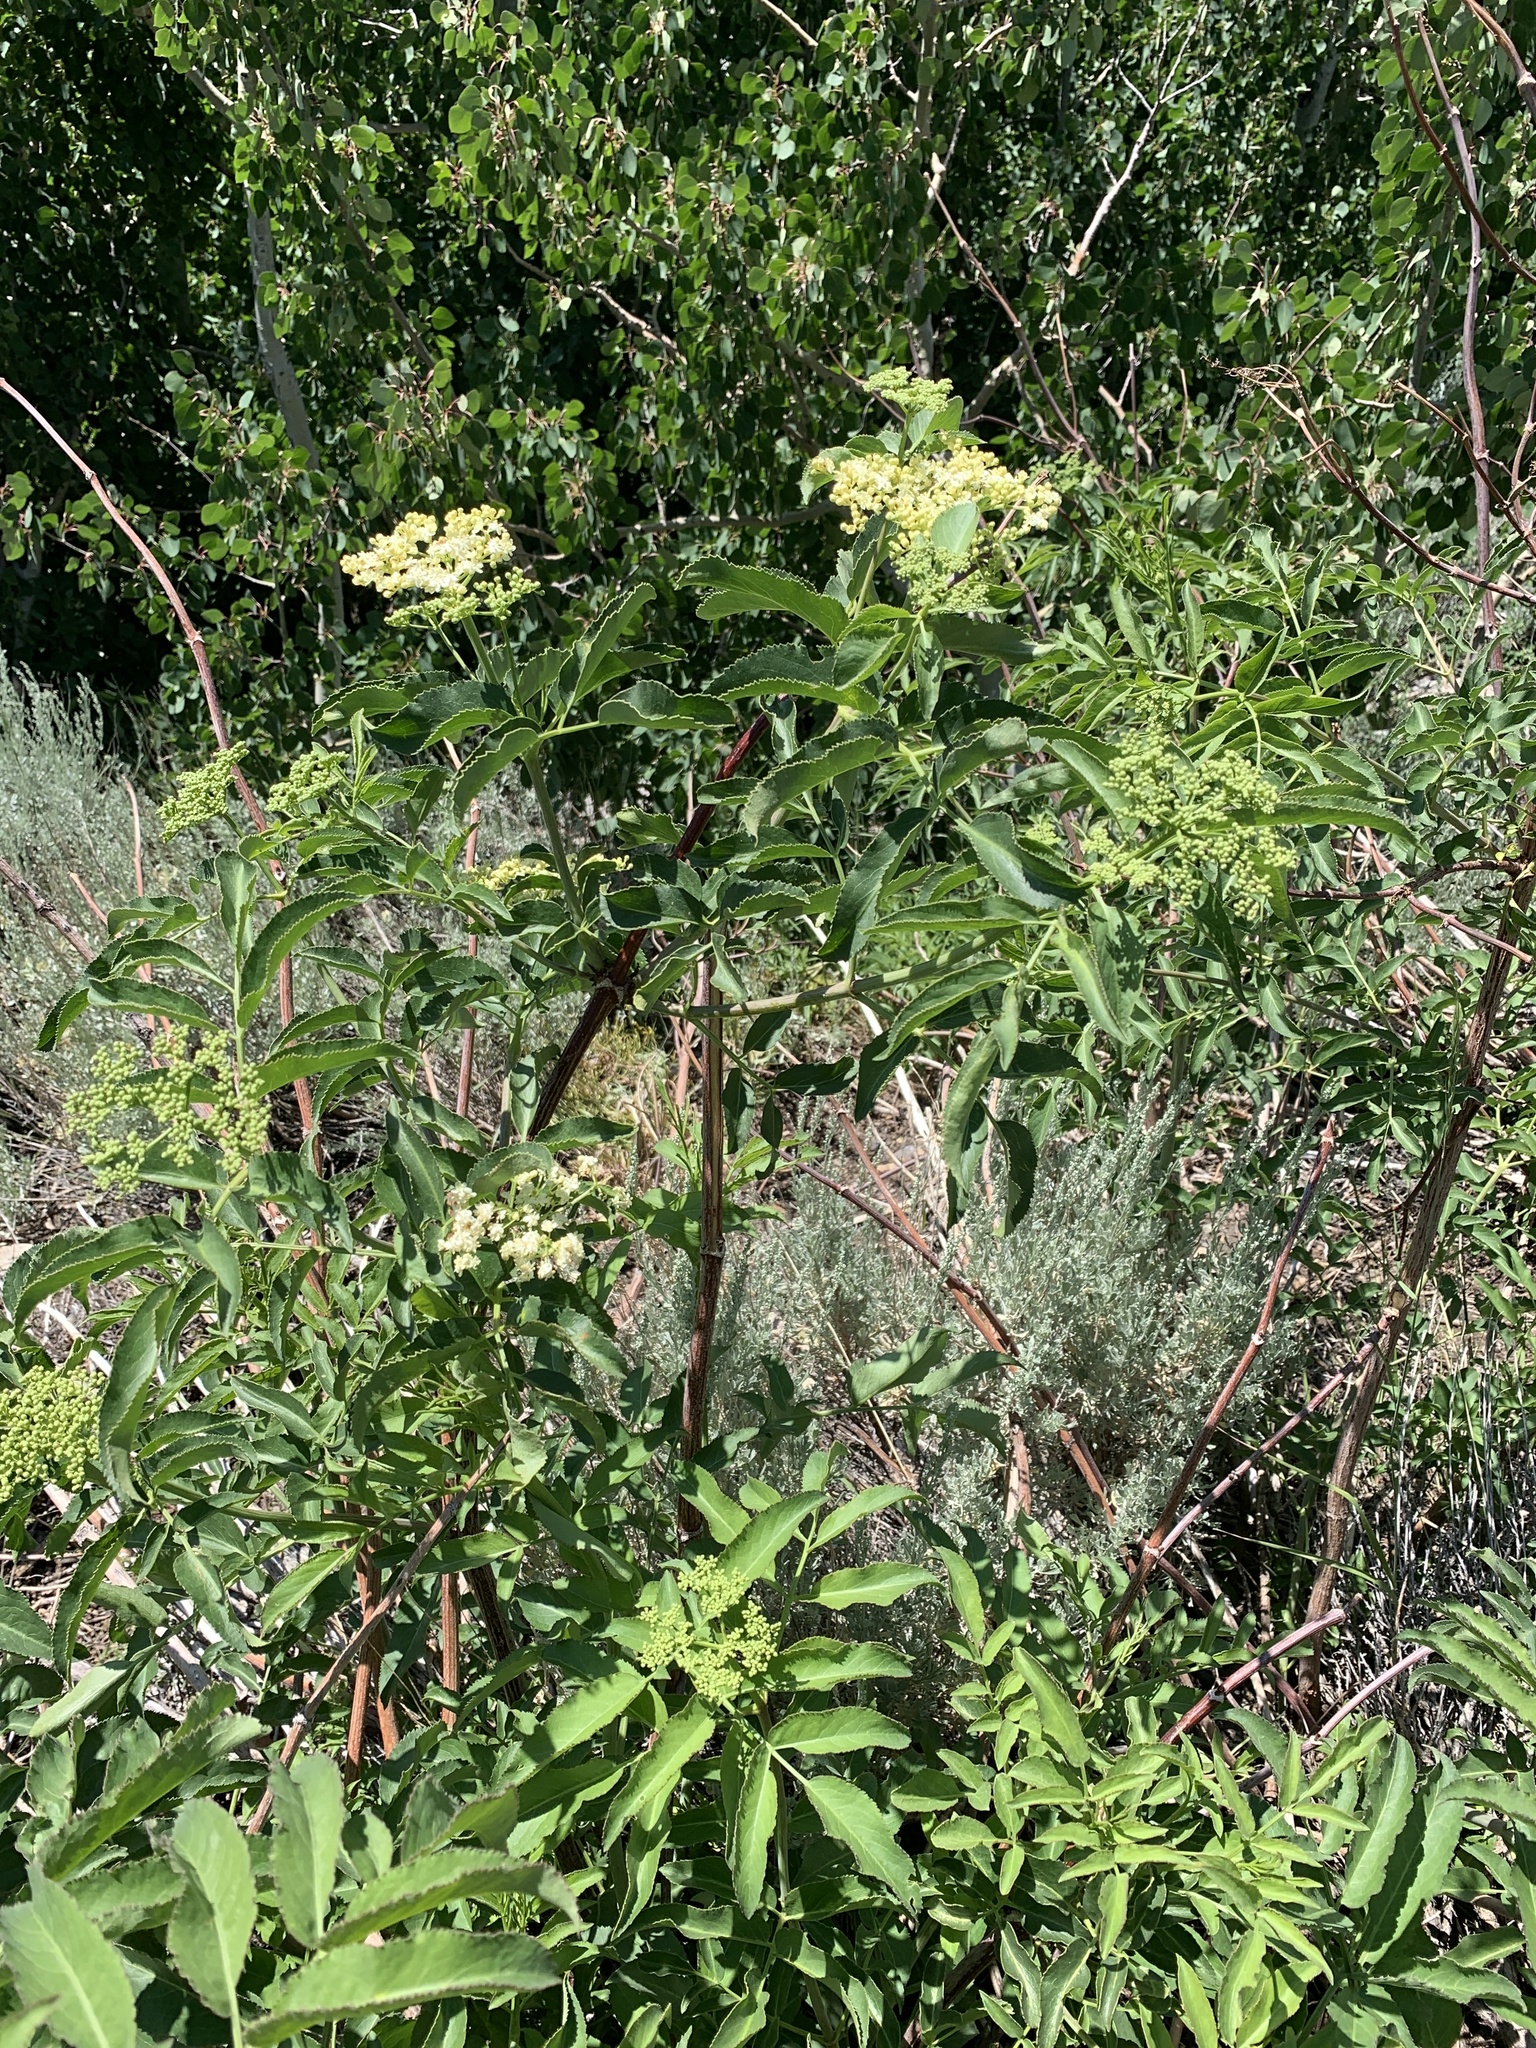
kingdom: Plantae
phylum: Tracheophyta
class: Magnoliopsida
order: Dipsacales
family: Viburnaceae
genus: Sambucus
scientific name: Sambucus cerulea
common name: Blue elder
